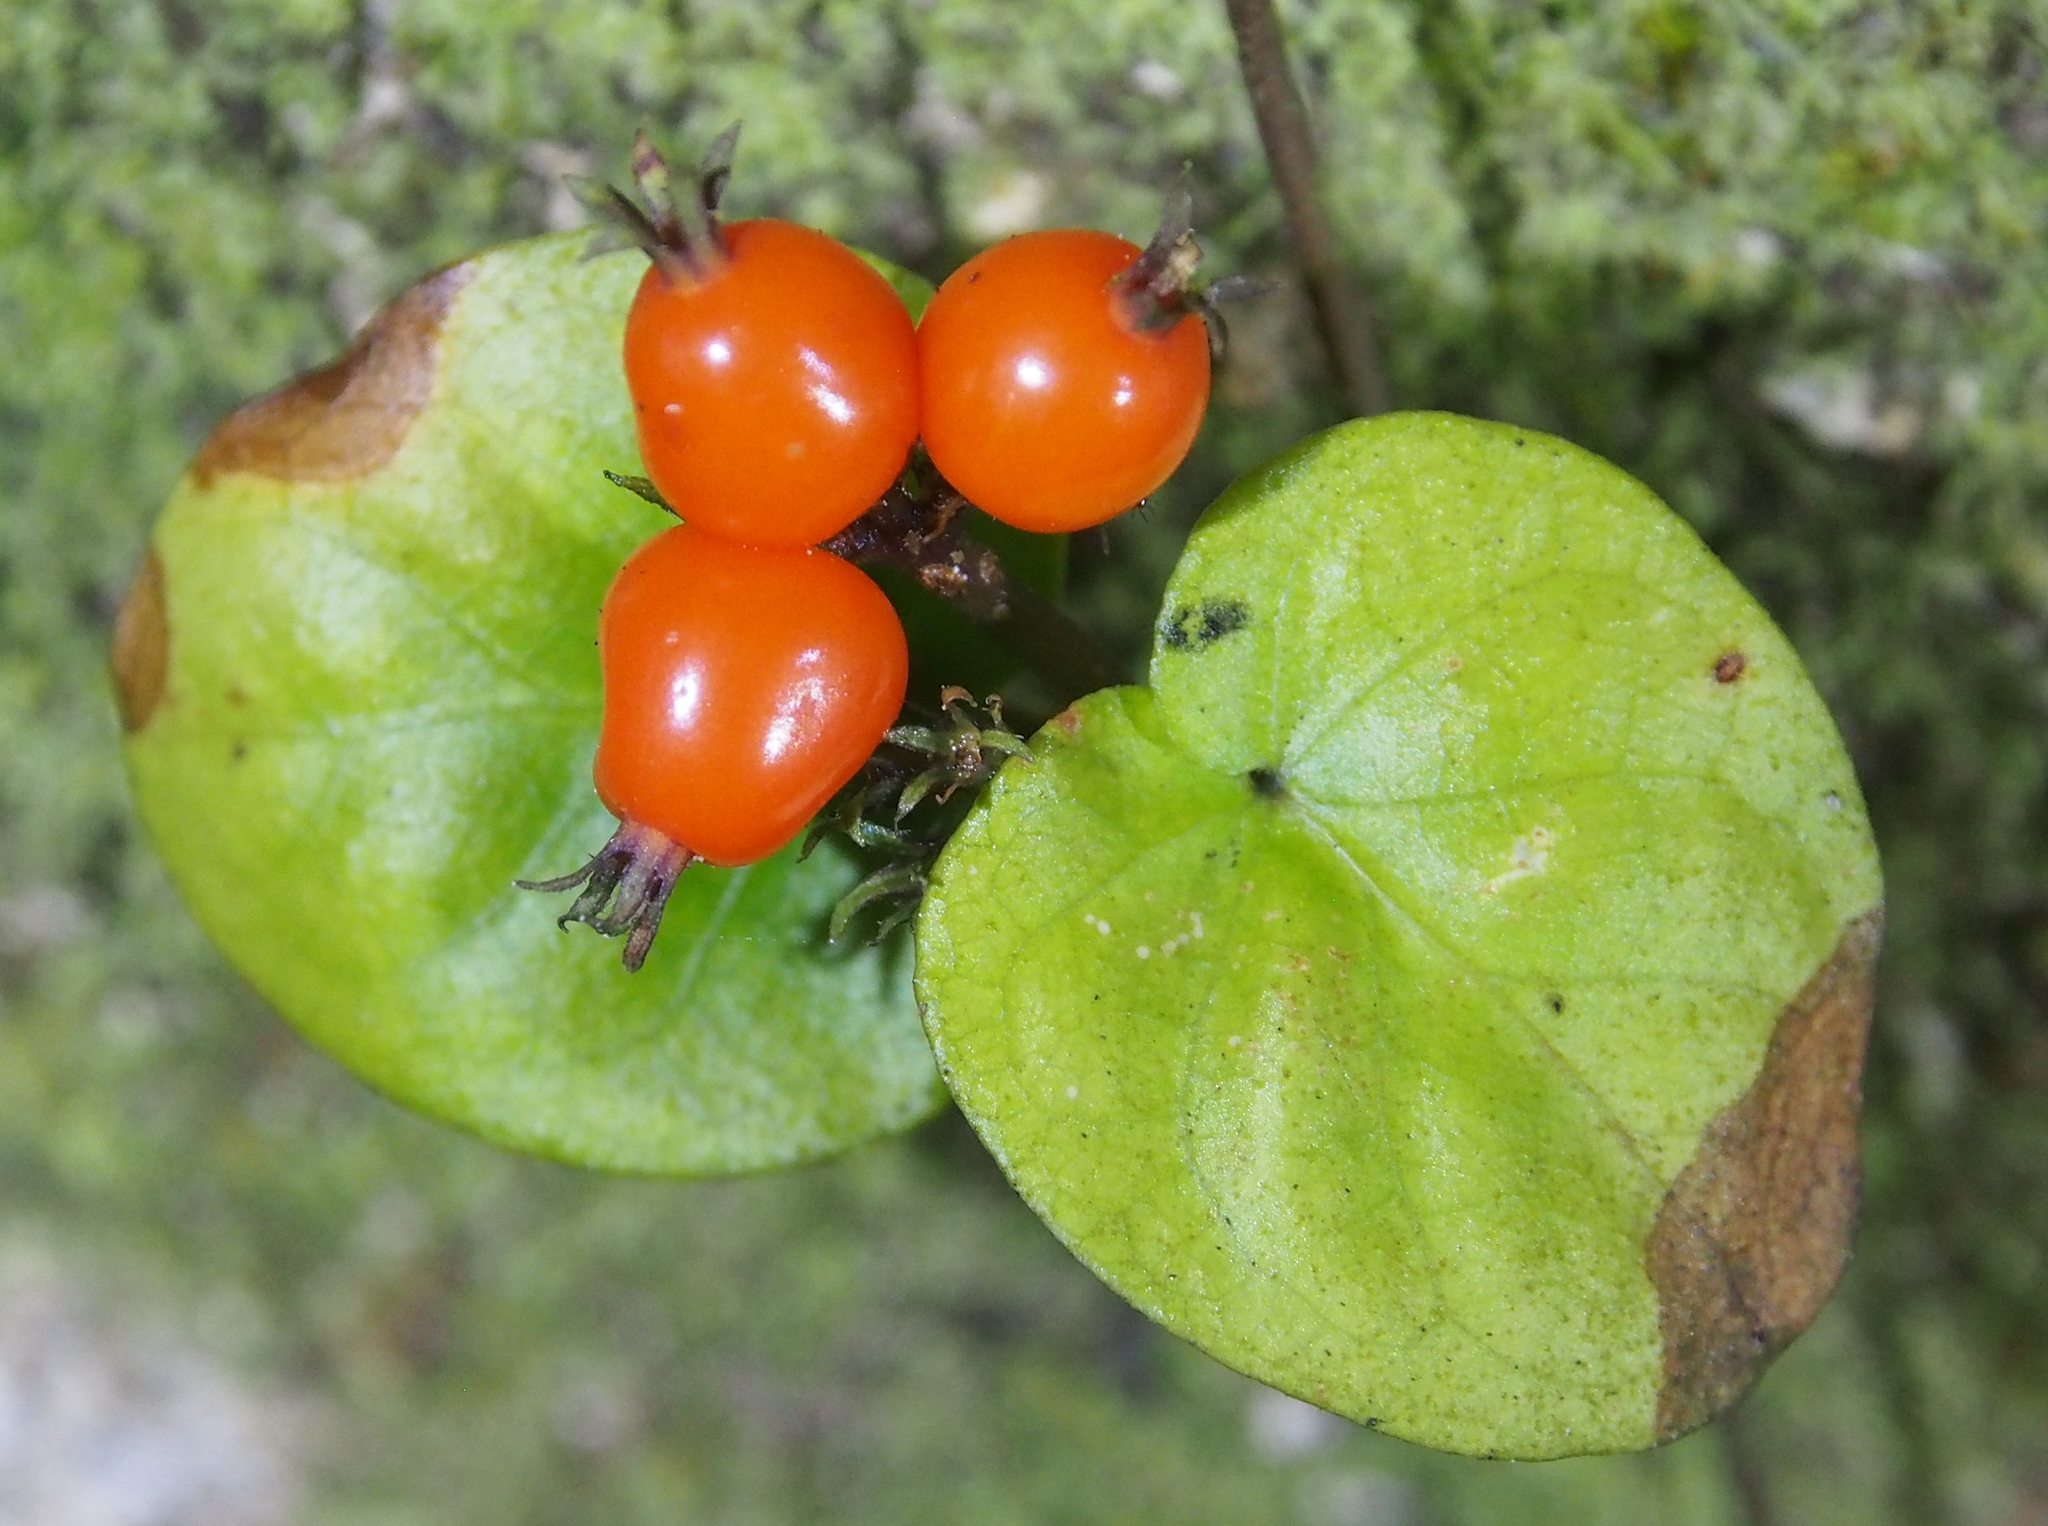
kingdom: Plantae
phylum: Tracheophyta
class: Magnoliopsida
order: Gentianales
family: Rubiaceae
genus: Geophila
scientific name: Geophila repens
